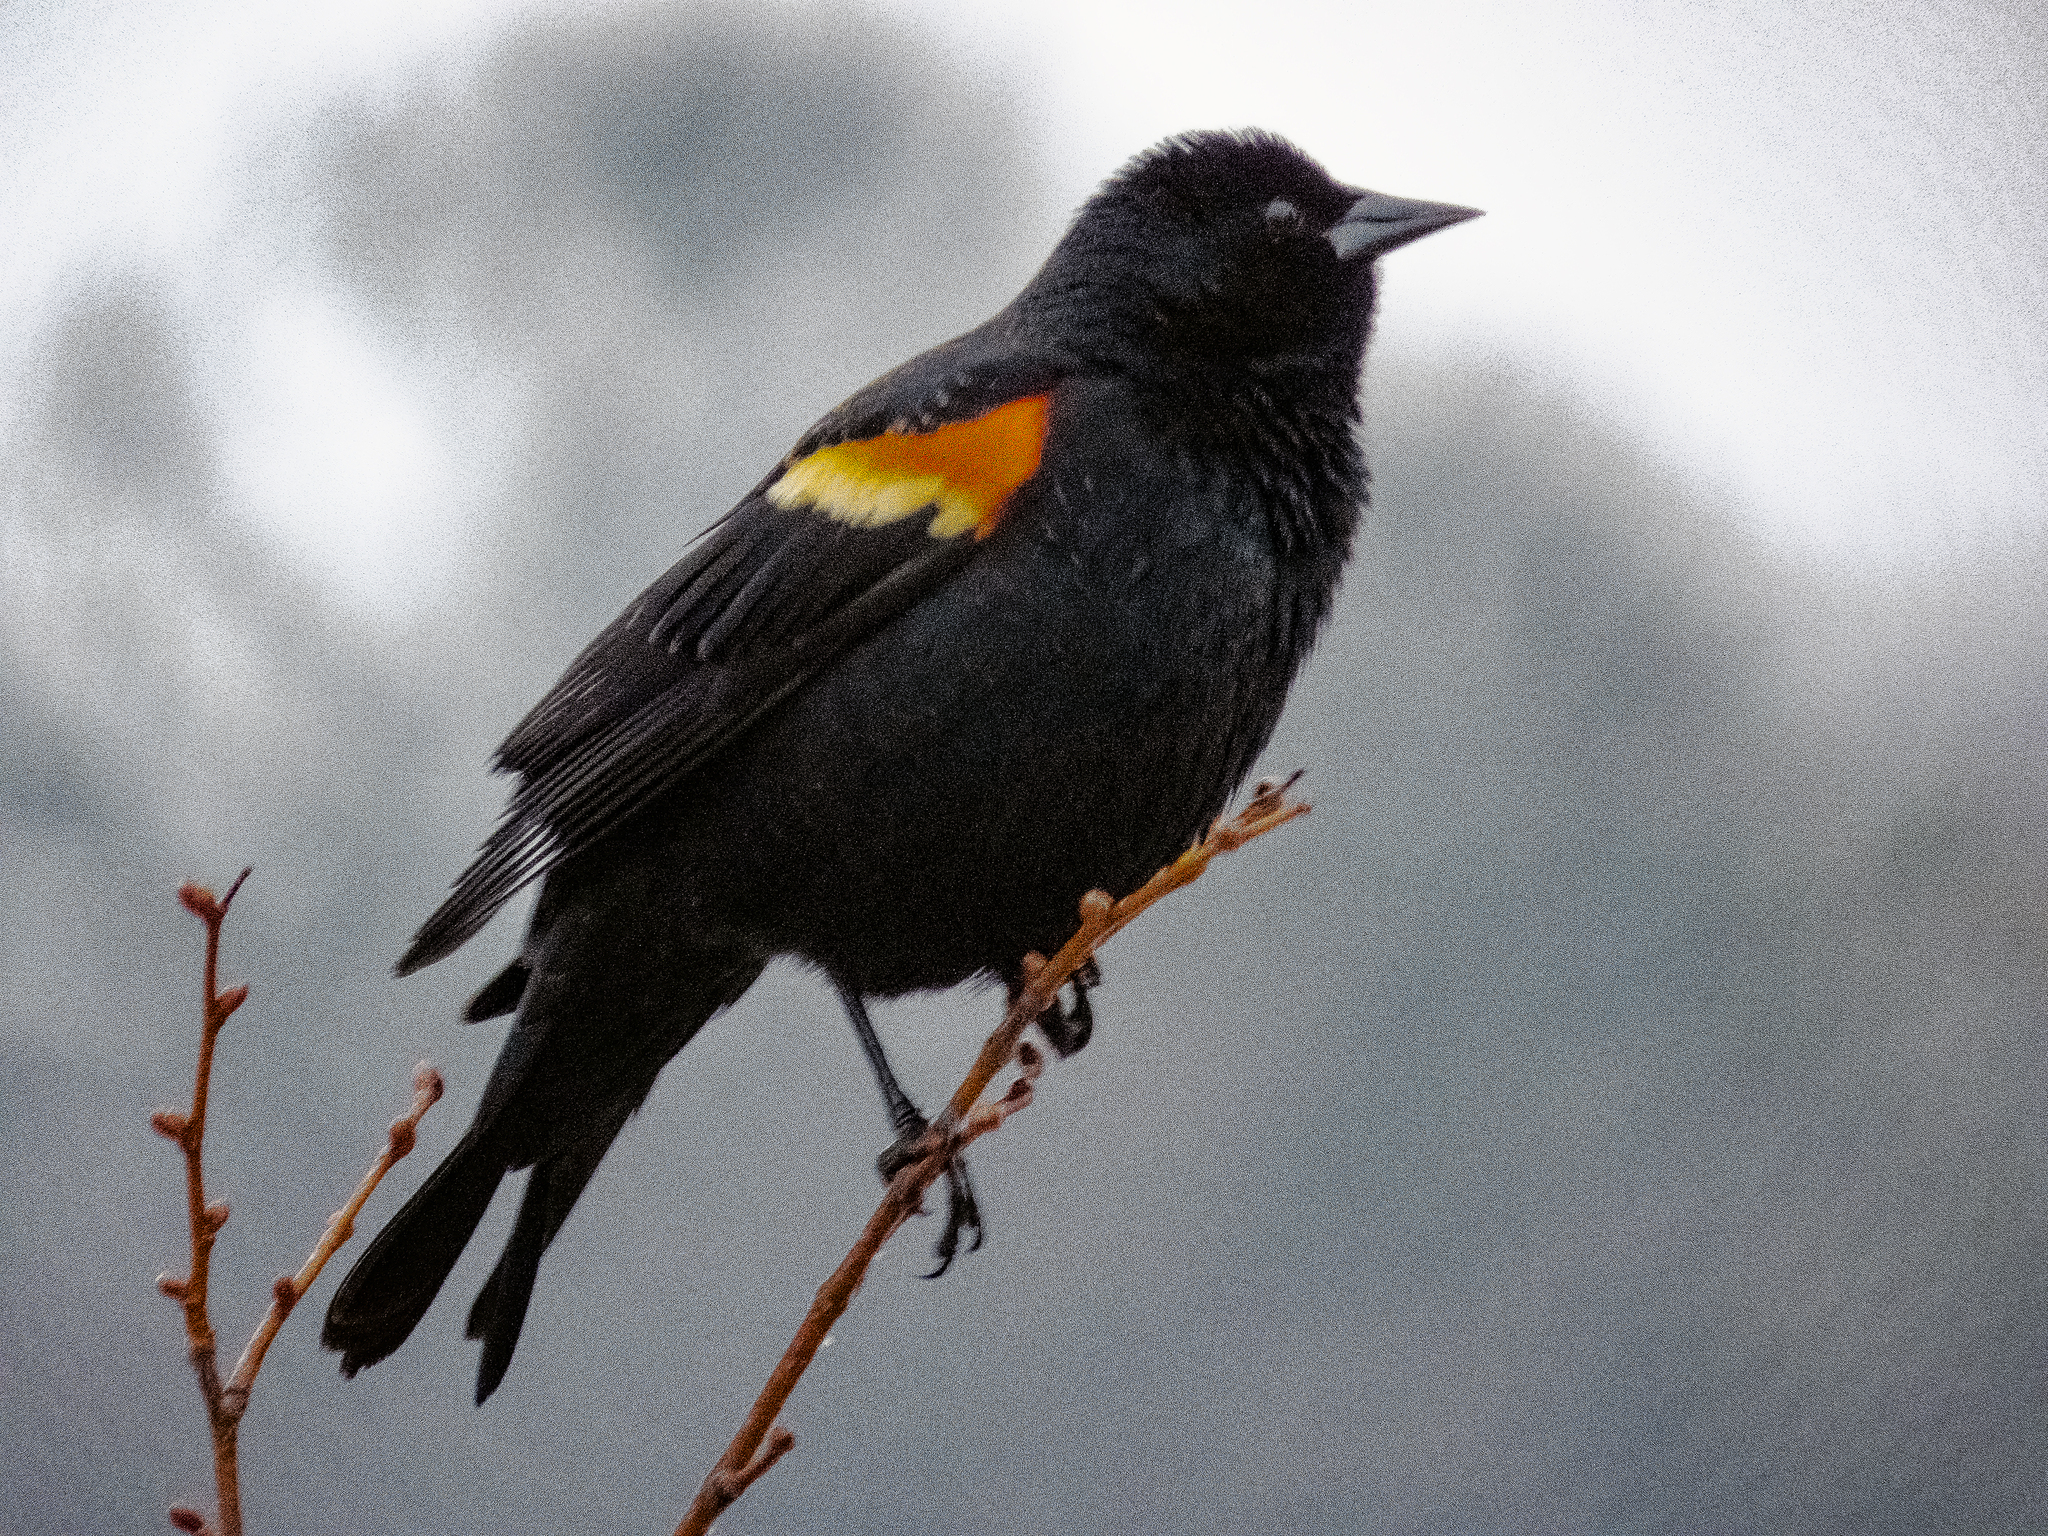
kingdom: Animalia
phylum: Chordata
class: Aves
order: Passeriformes
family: Icteridae
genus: Agelaius
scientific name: Agelaius phoeniceus
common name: Red-winged blackbird
